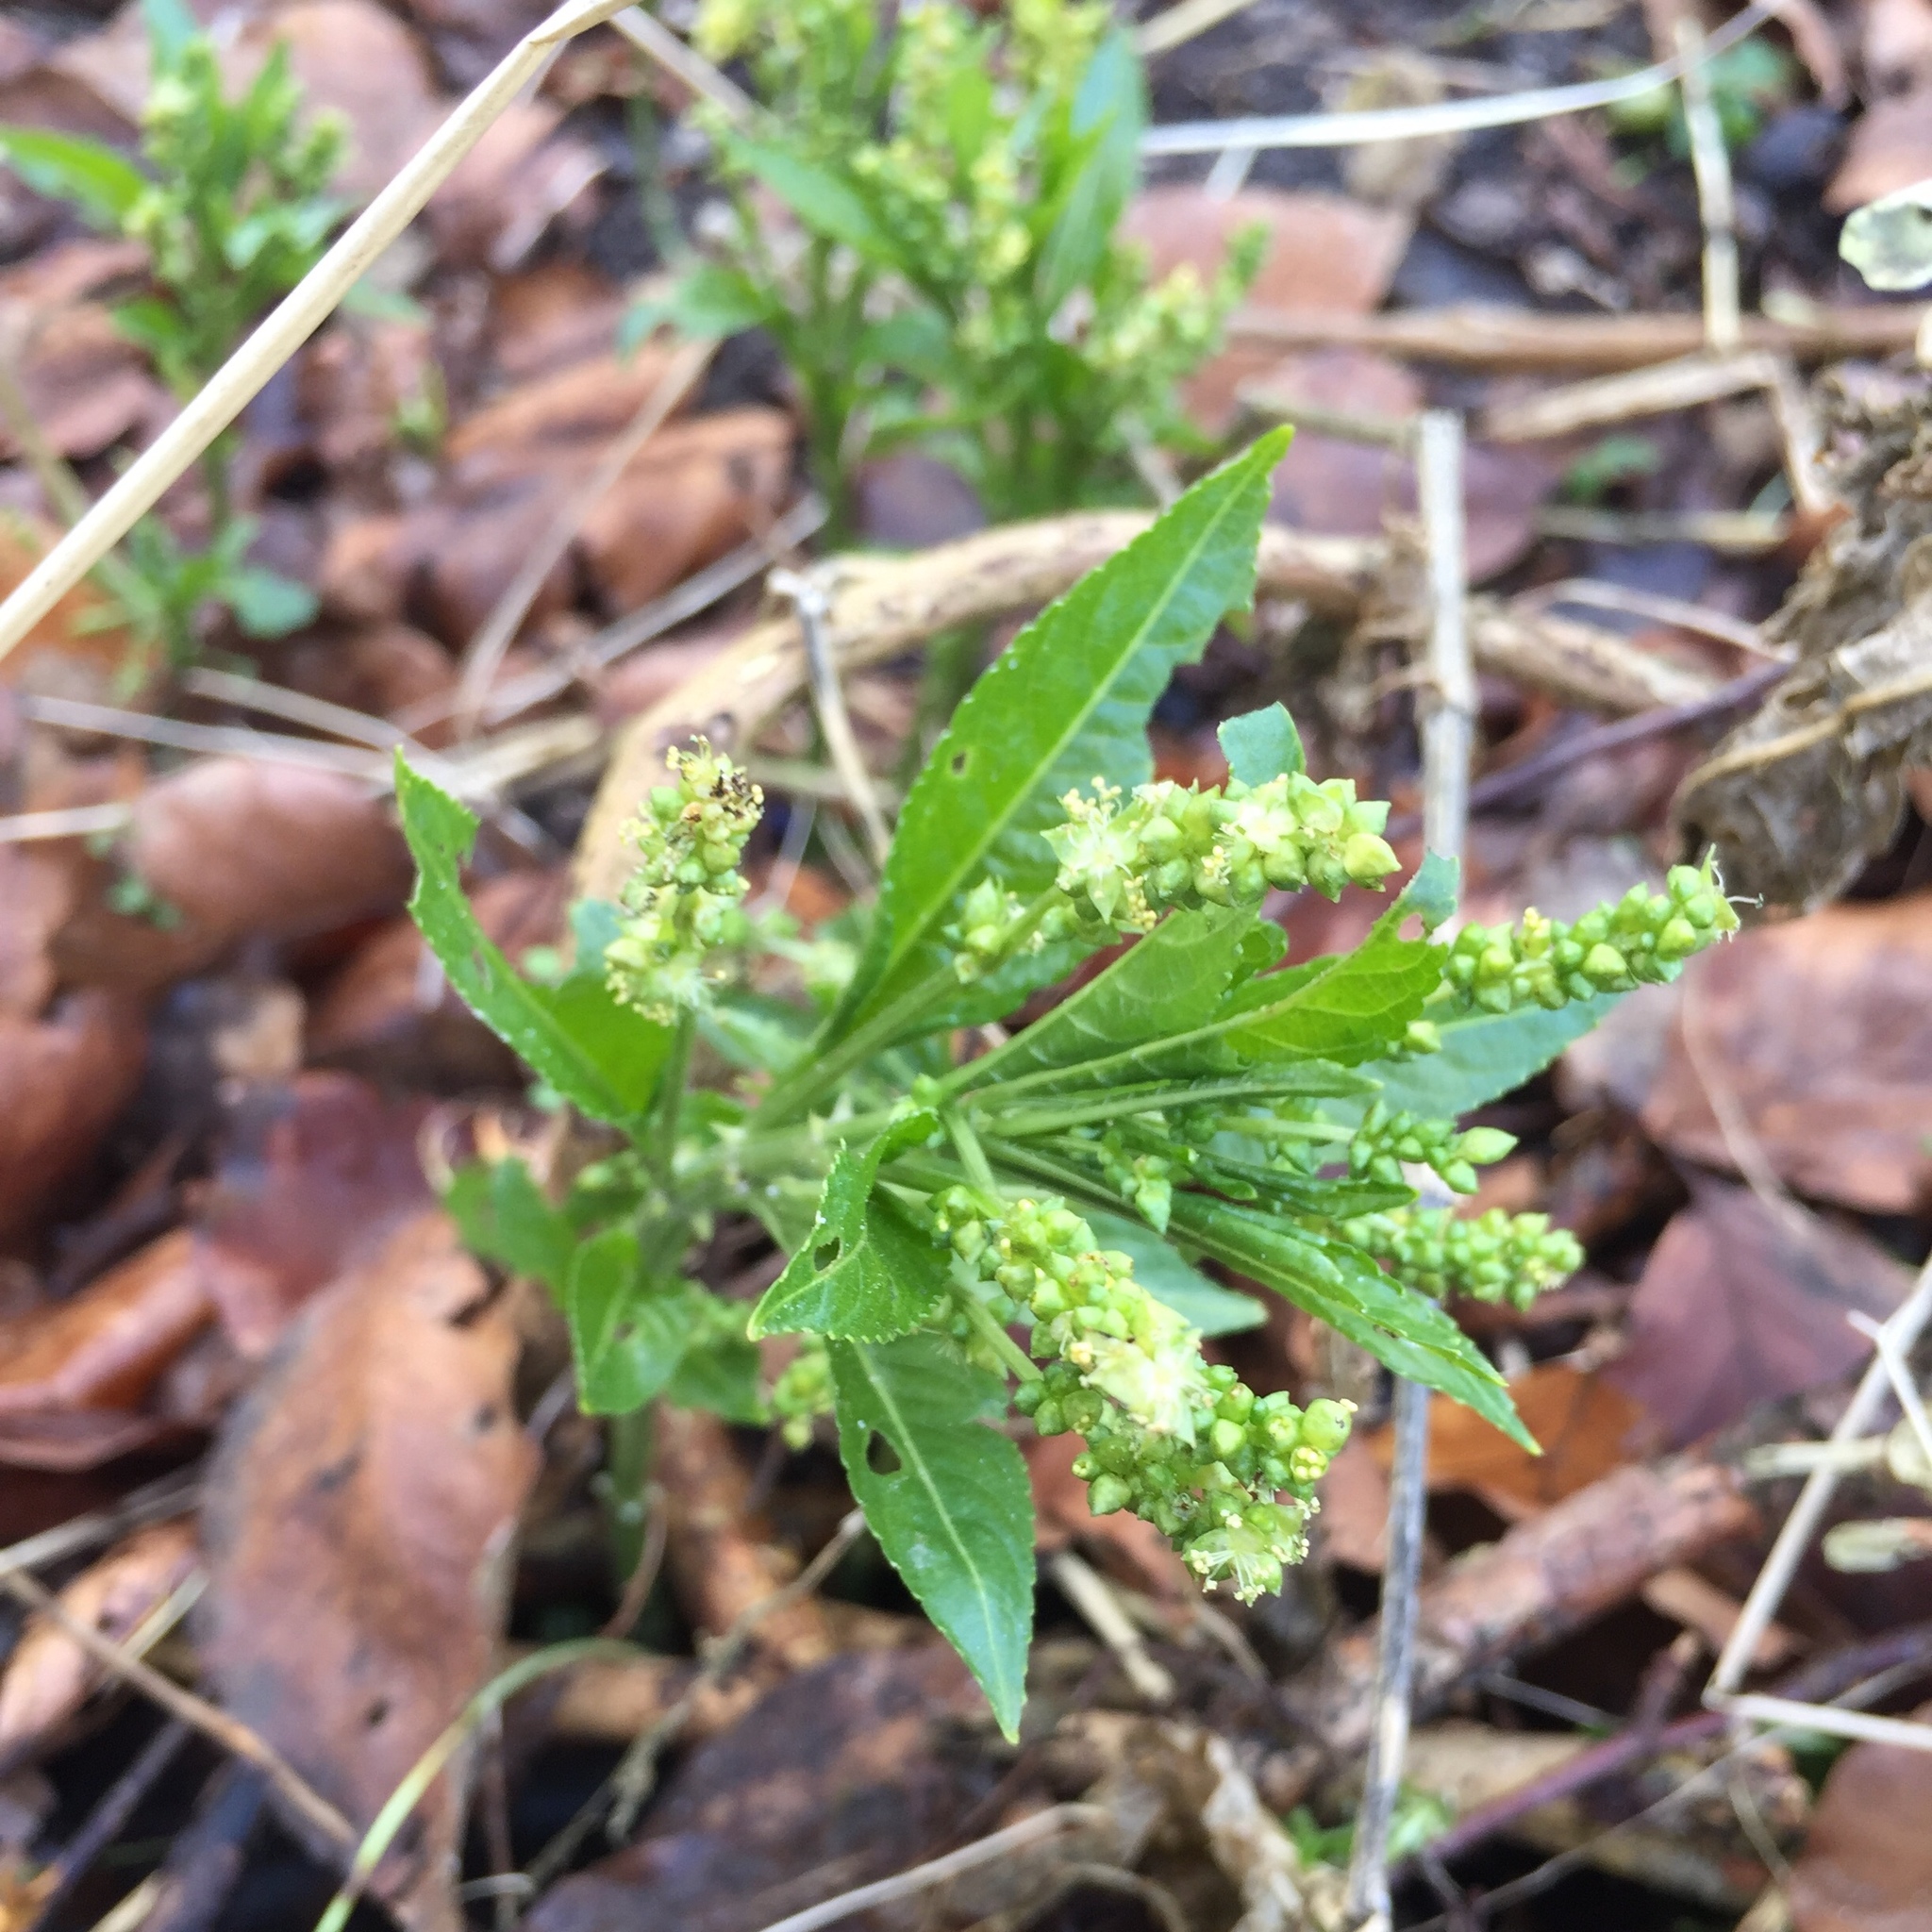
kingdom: Plantae
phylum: Tracheophyta
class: Magnoliopsida
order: Malpighiales
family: Euphorbiaceae
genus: Mercurialis
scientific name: Mercurialis perennis
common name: Dog mercury
